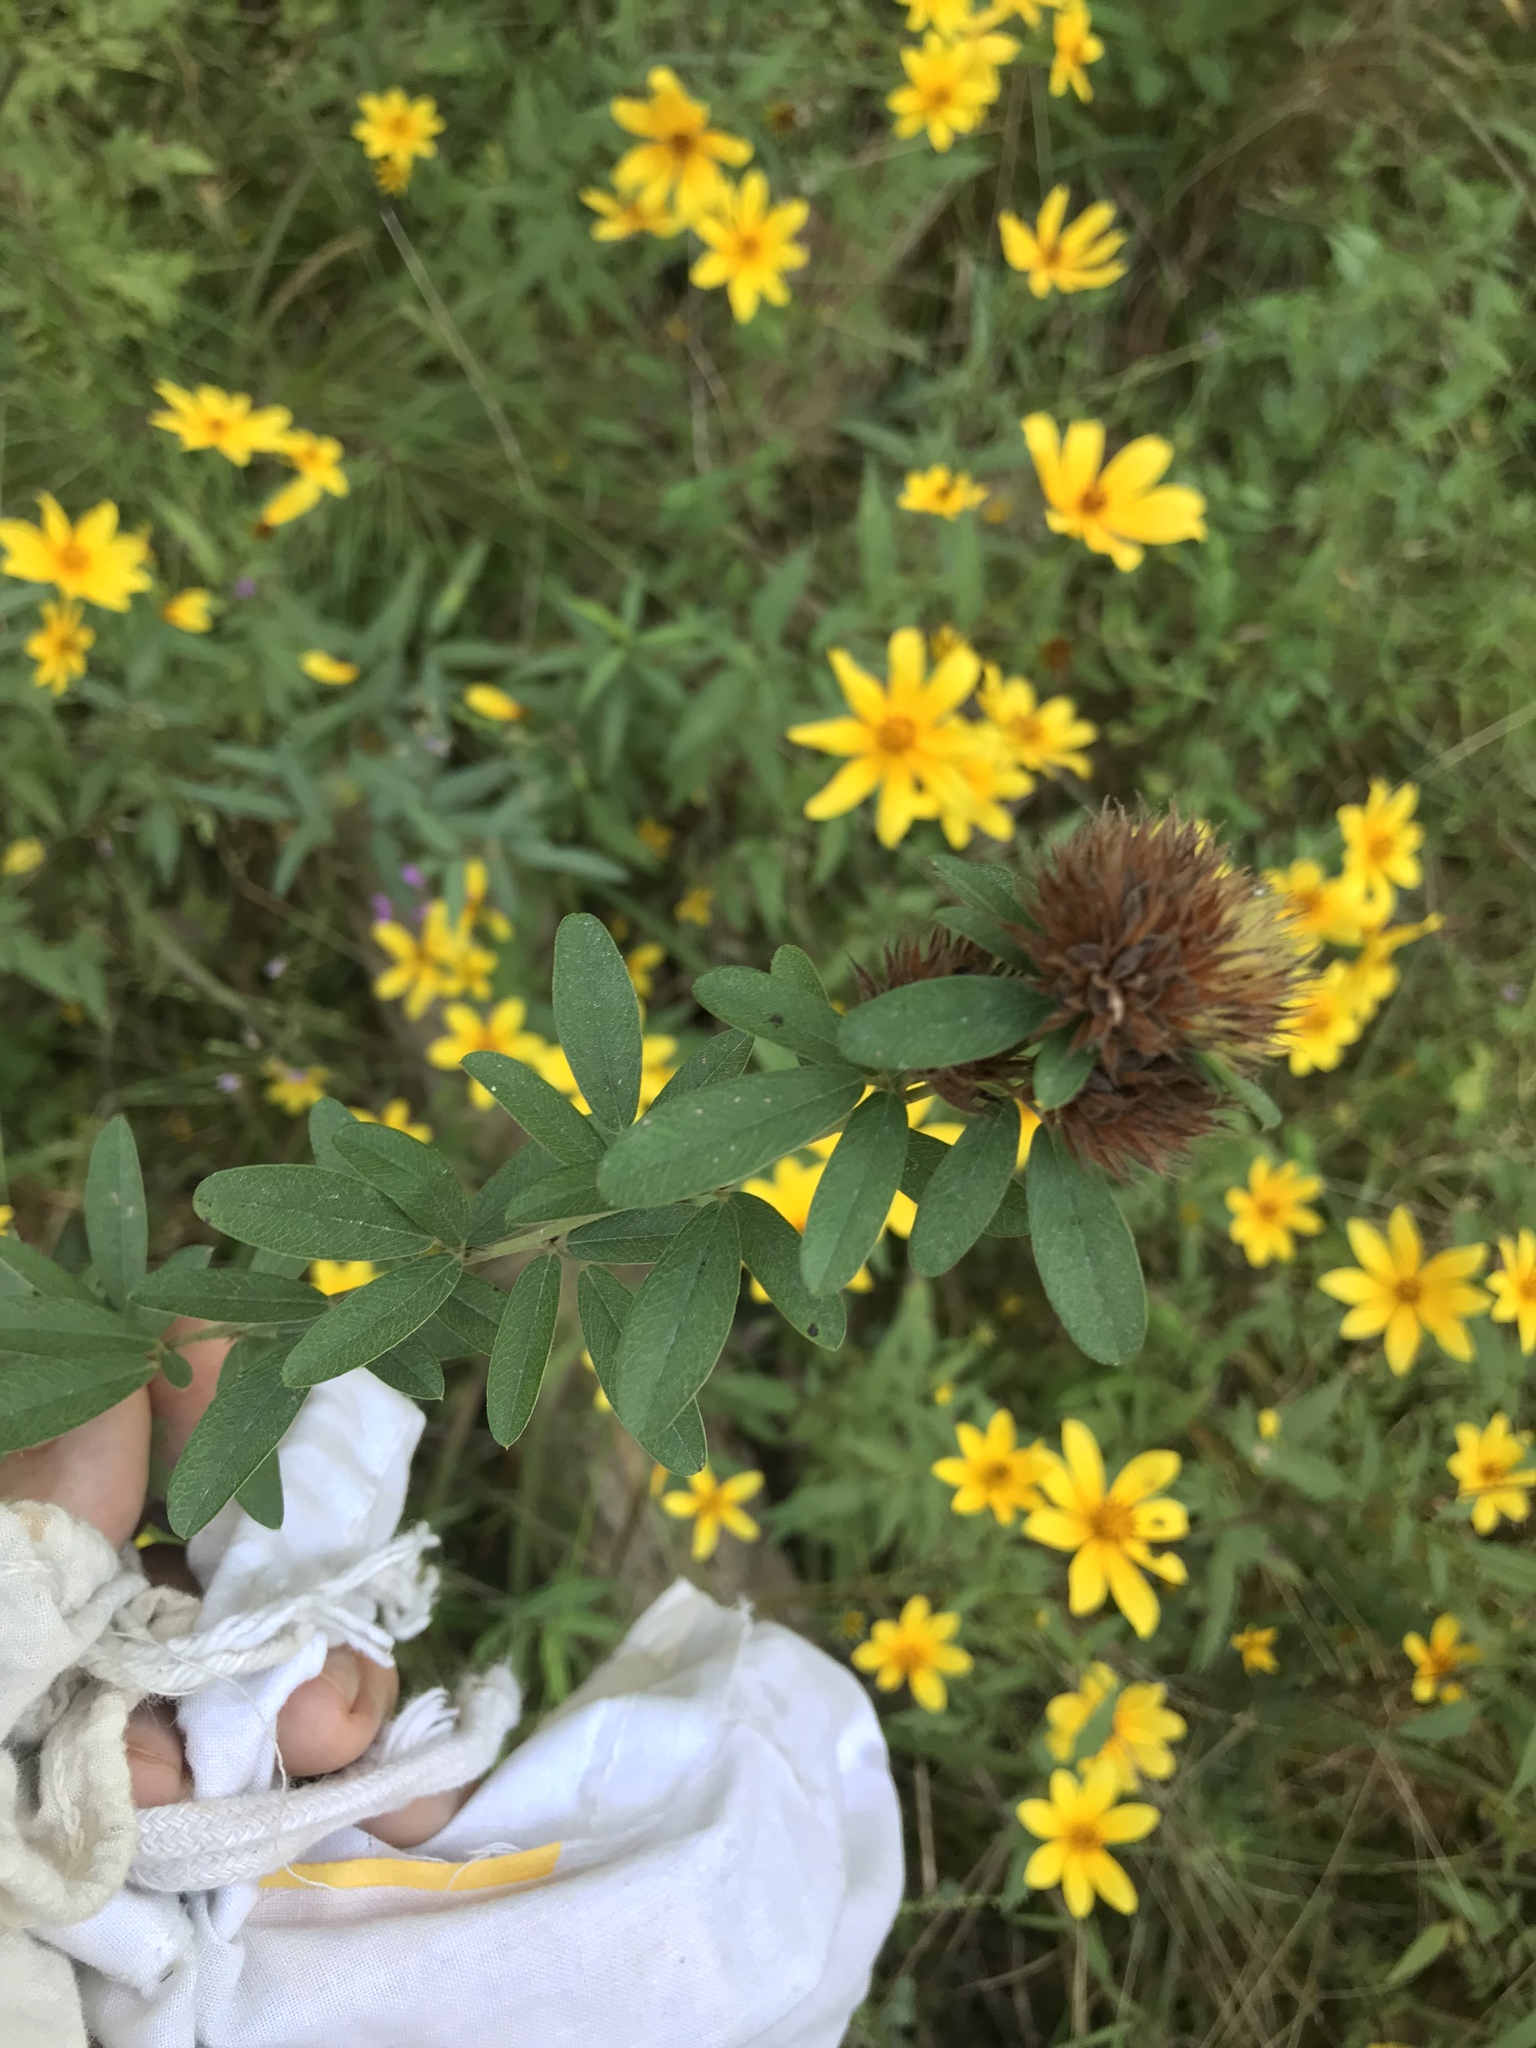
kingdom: Plantae
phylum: Tracheophyta
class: Magnoliopsida
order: Fabales
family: Fabaceae
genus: Lespedeza
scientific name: Lespedeza capitata
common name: Dusty clover
